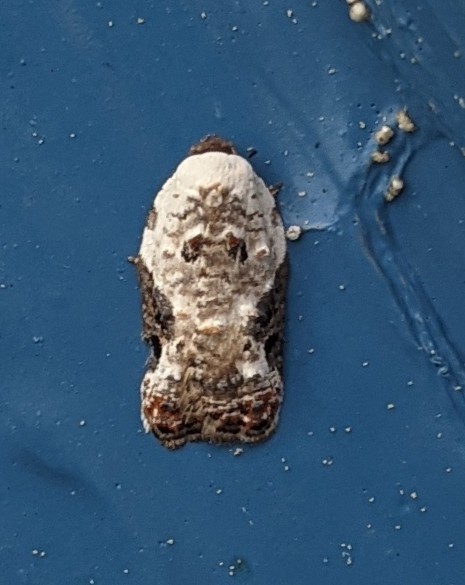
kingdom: Animalia
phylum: Arthropoda
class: Insecta
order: Lepidoptera
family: Tortricidae
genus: Acleris
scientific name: Acleris nivisellana
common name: Snowy-shouldered acleris moth
